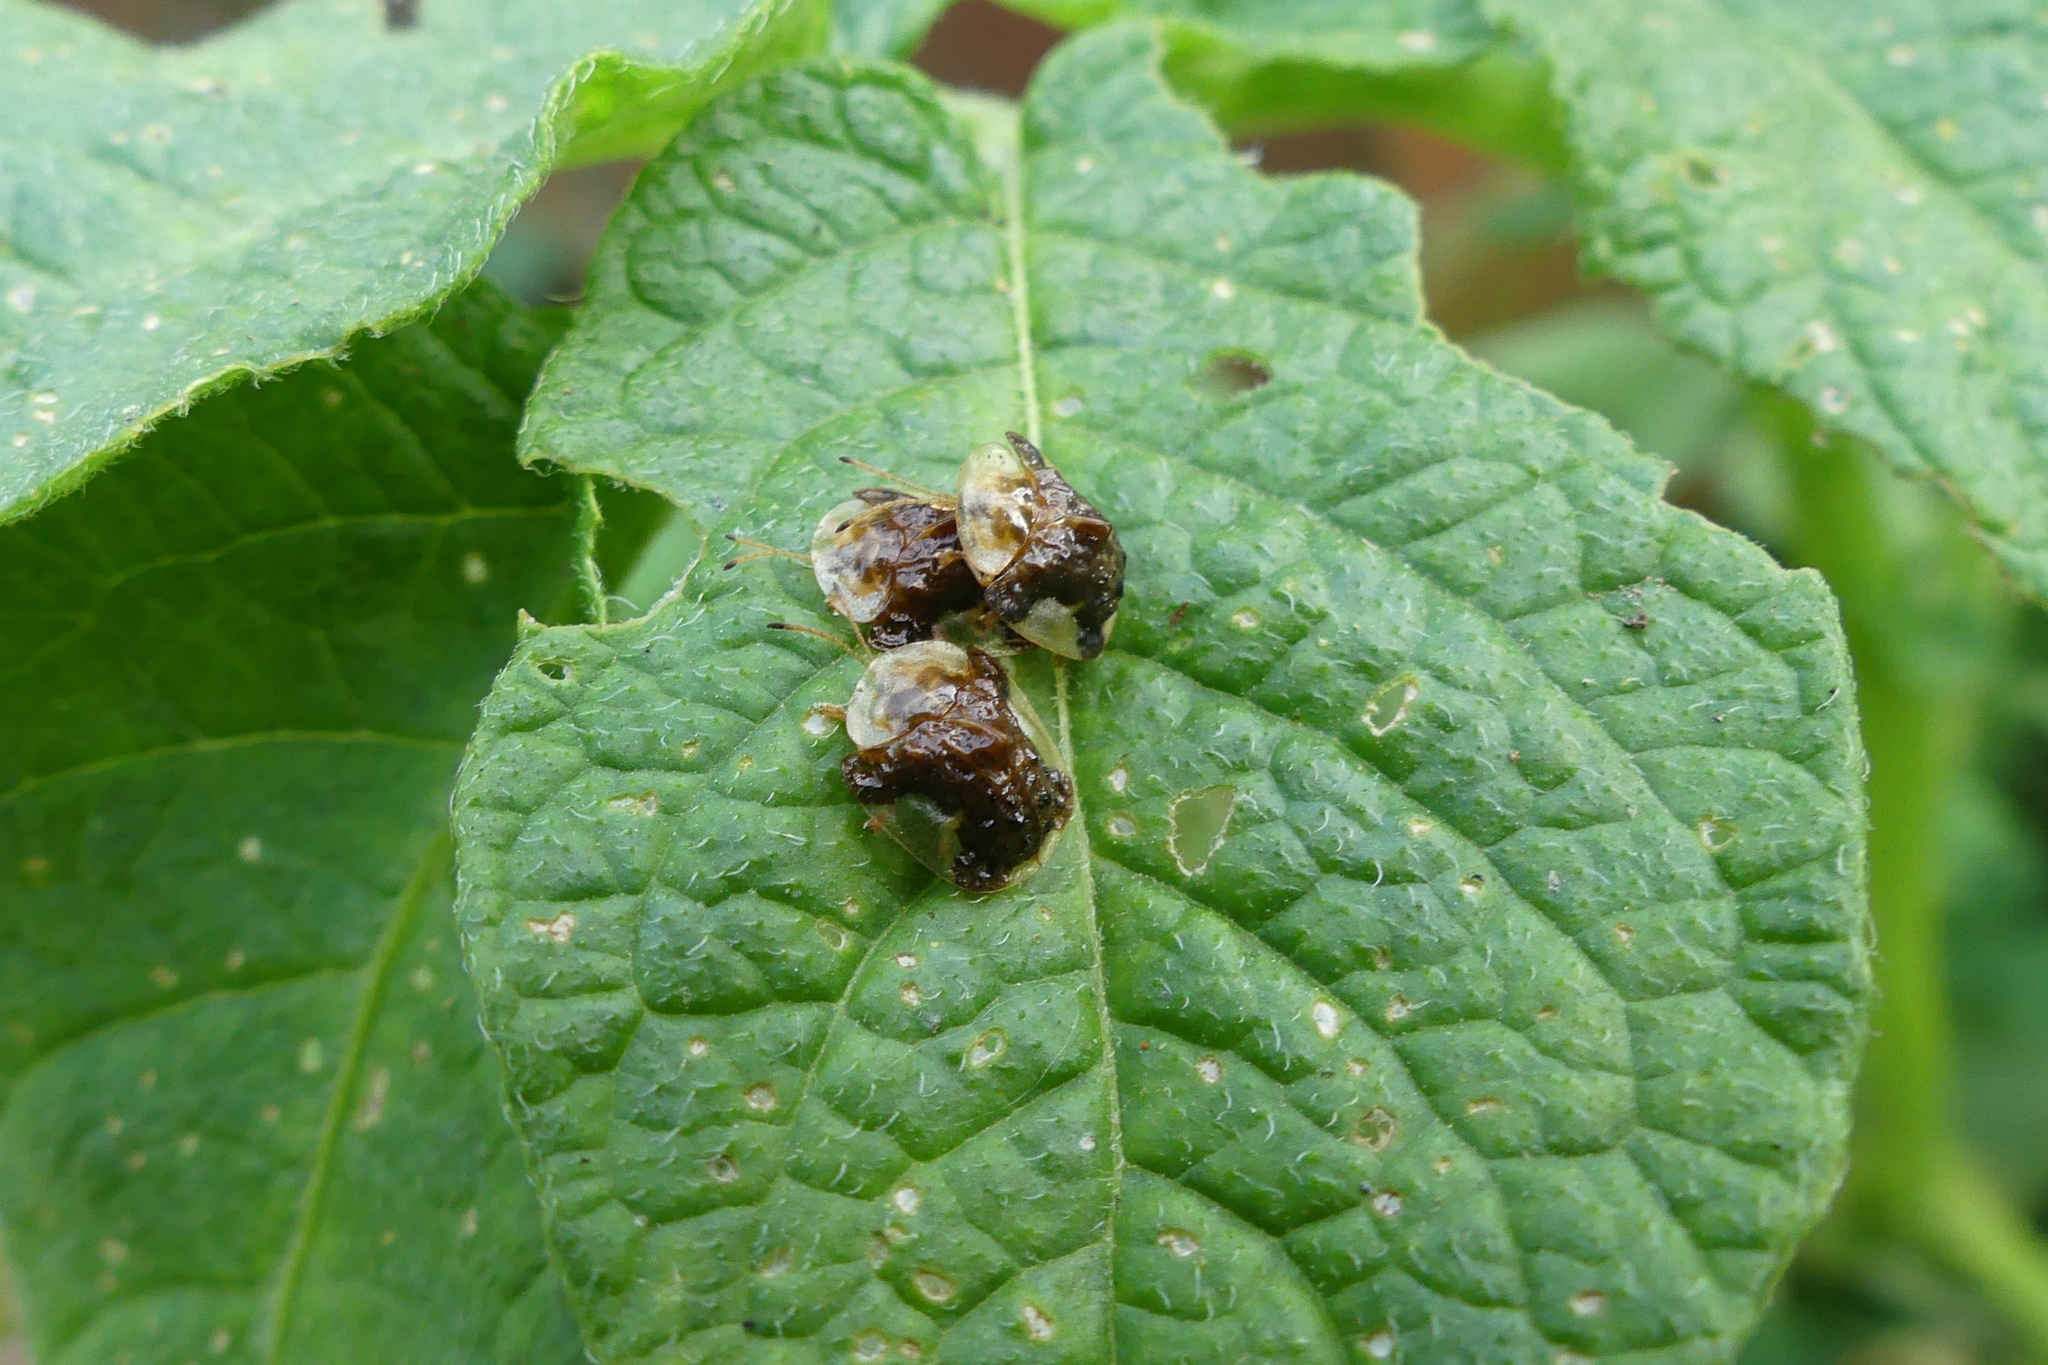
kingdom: Animalia
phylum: Arthropoda
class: Insecta
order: Coleoptera
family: Chrysomelidae
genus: Helocassis
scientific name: Helocassis clavata
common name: Clavate tortoise beetle
